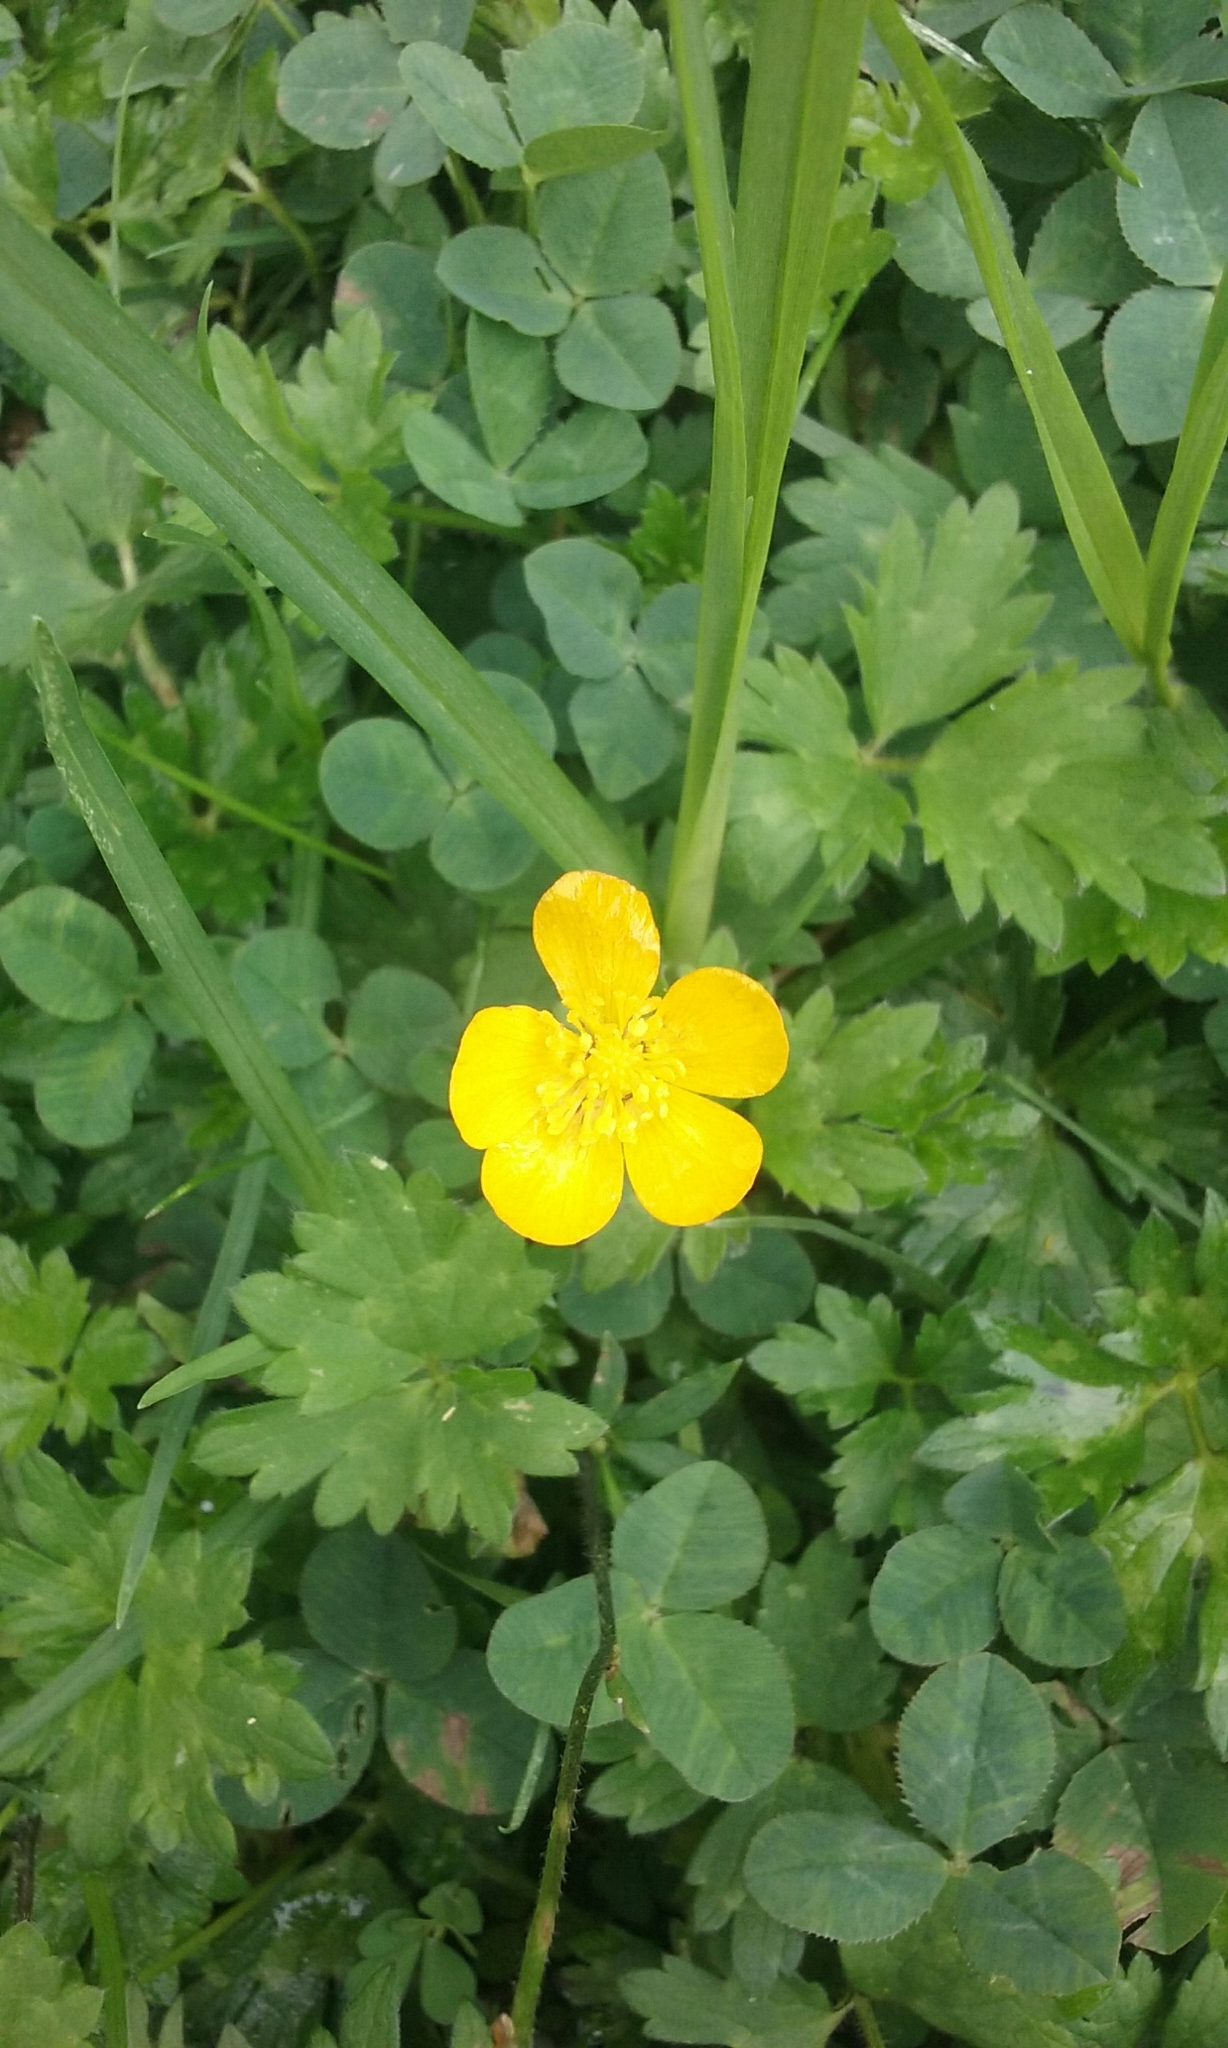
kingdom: Plantae
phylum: Tracheophyta
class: Magnoliopsida
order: Ranunculales
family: Ranunculaceae
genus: Ranunculus
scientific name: Ranunculus repens
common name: Creeping buttercup
